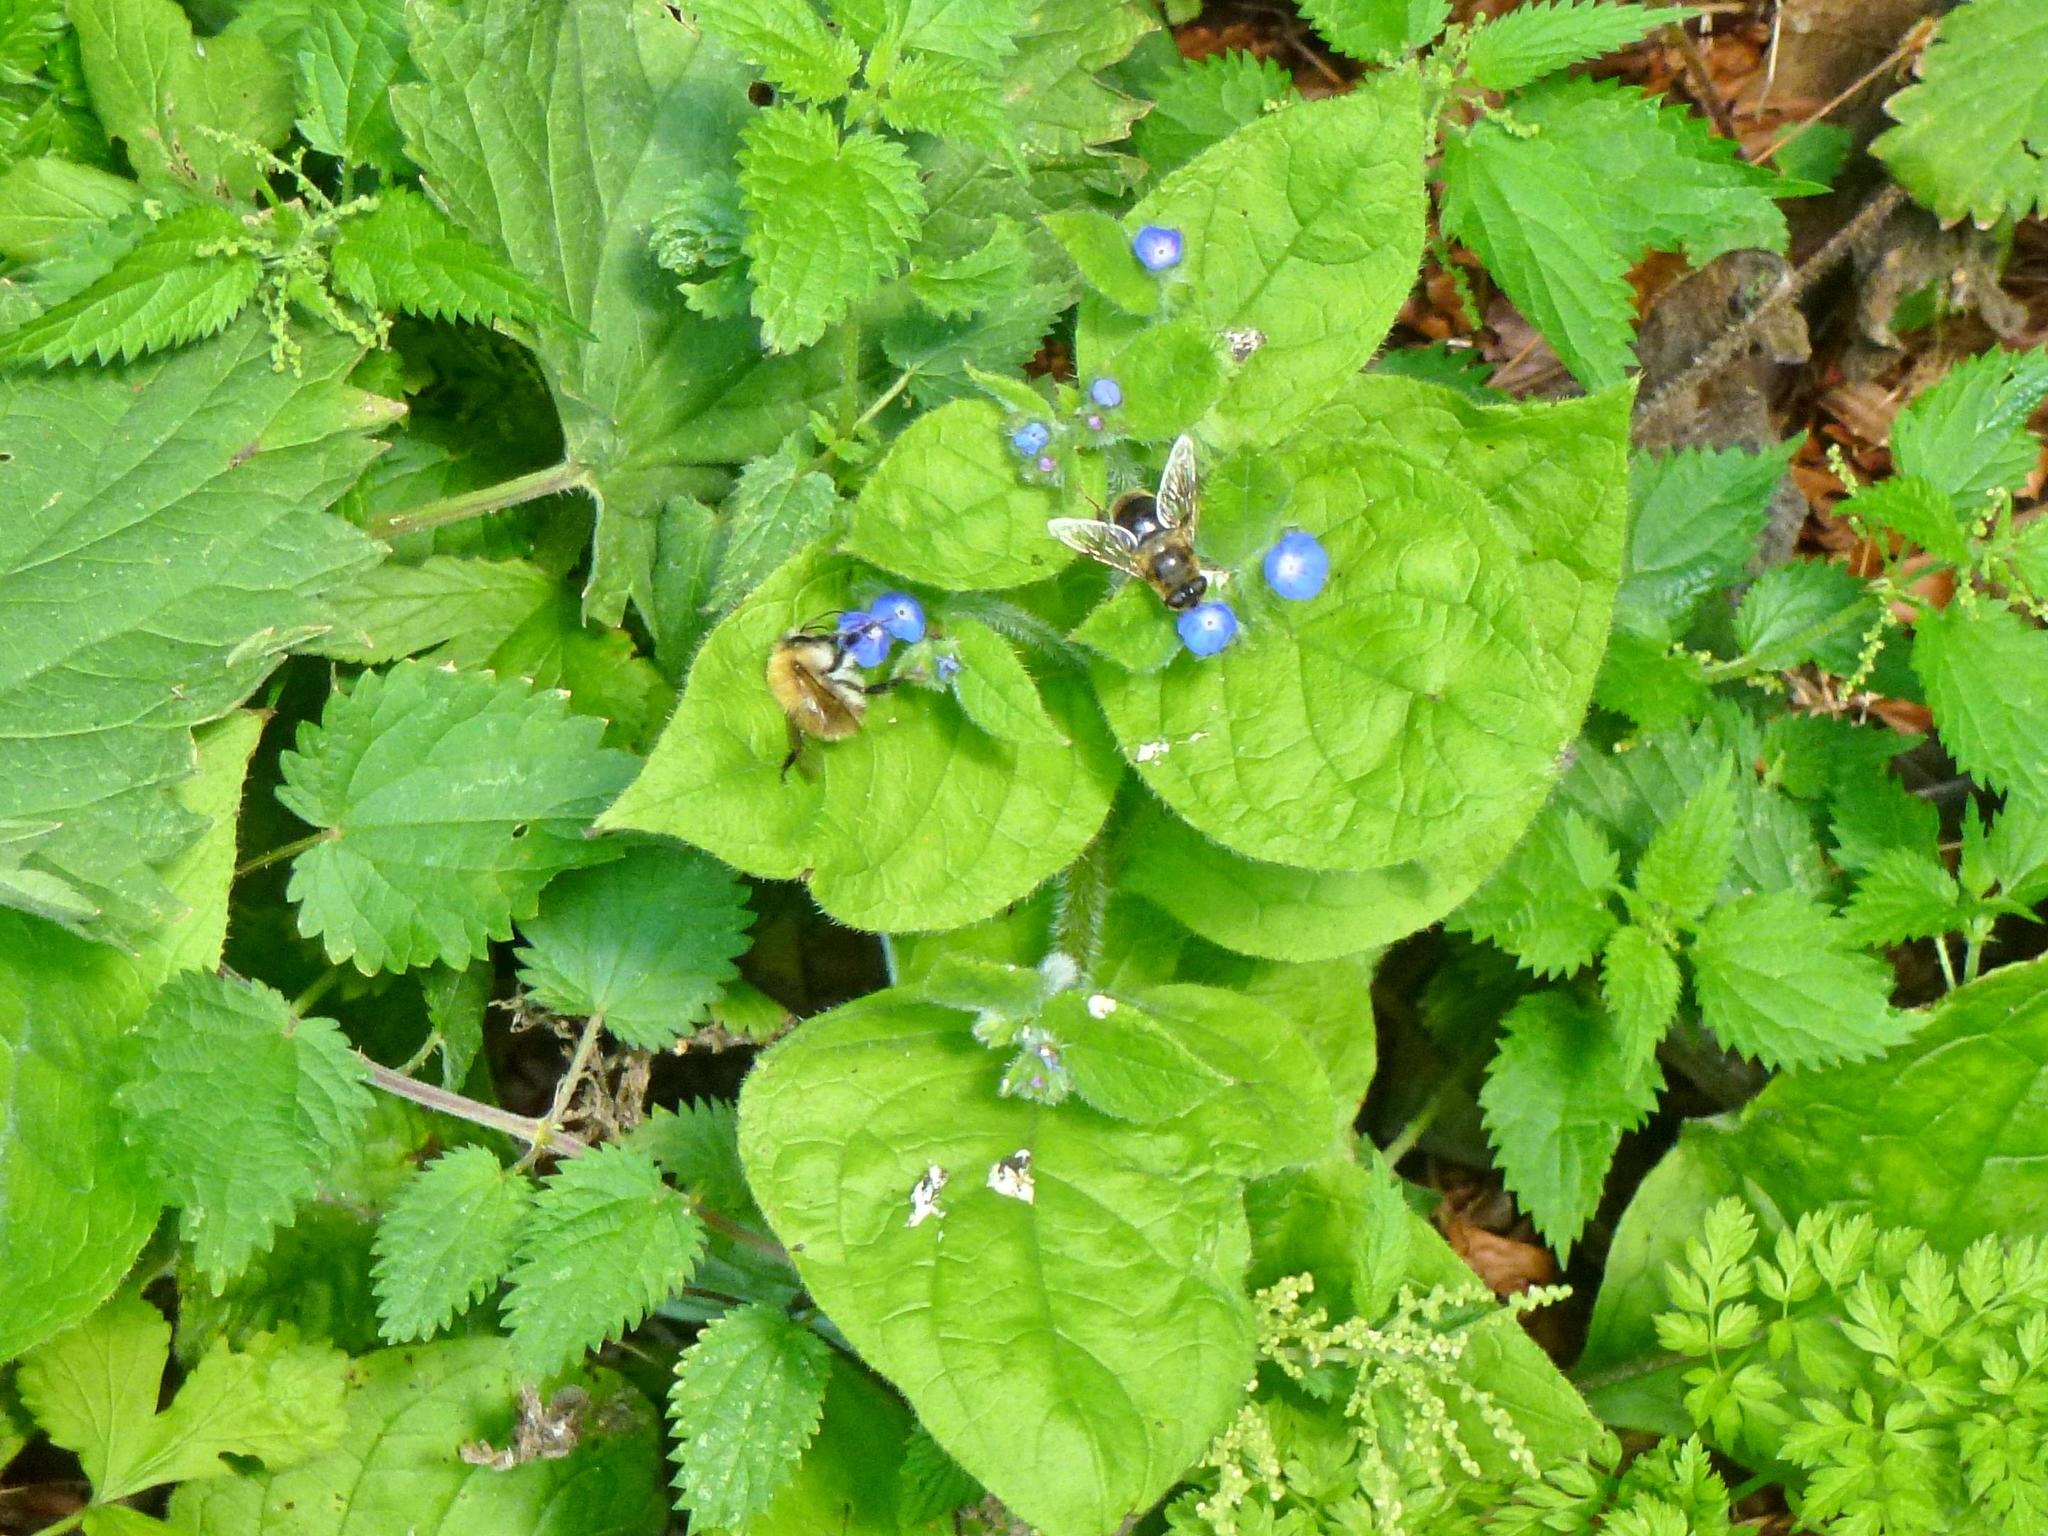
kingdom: Animalia
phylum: Arthropoda
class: Insecta
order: Hymenoptera
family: Apidae
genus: Bombus
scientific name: Bombus pascuorum
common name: Common carder bee
